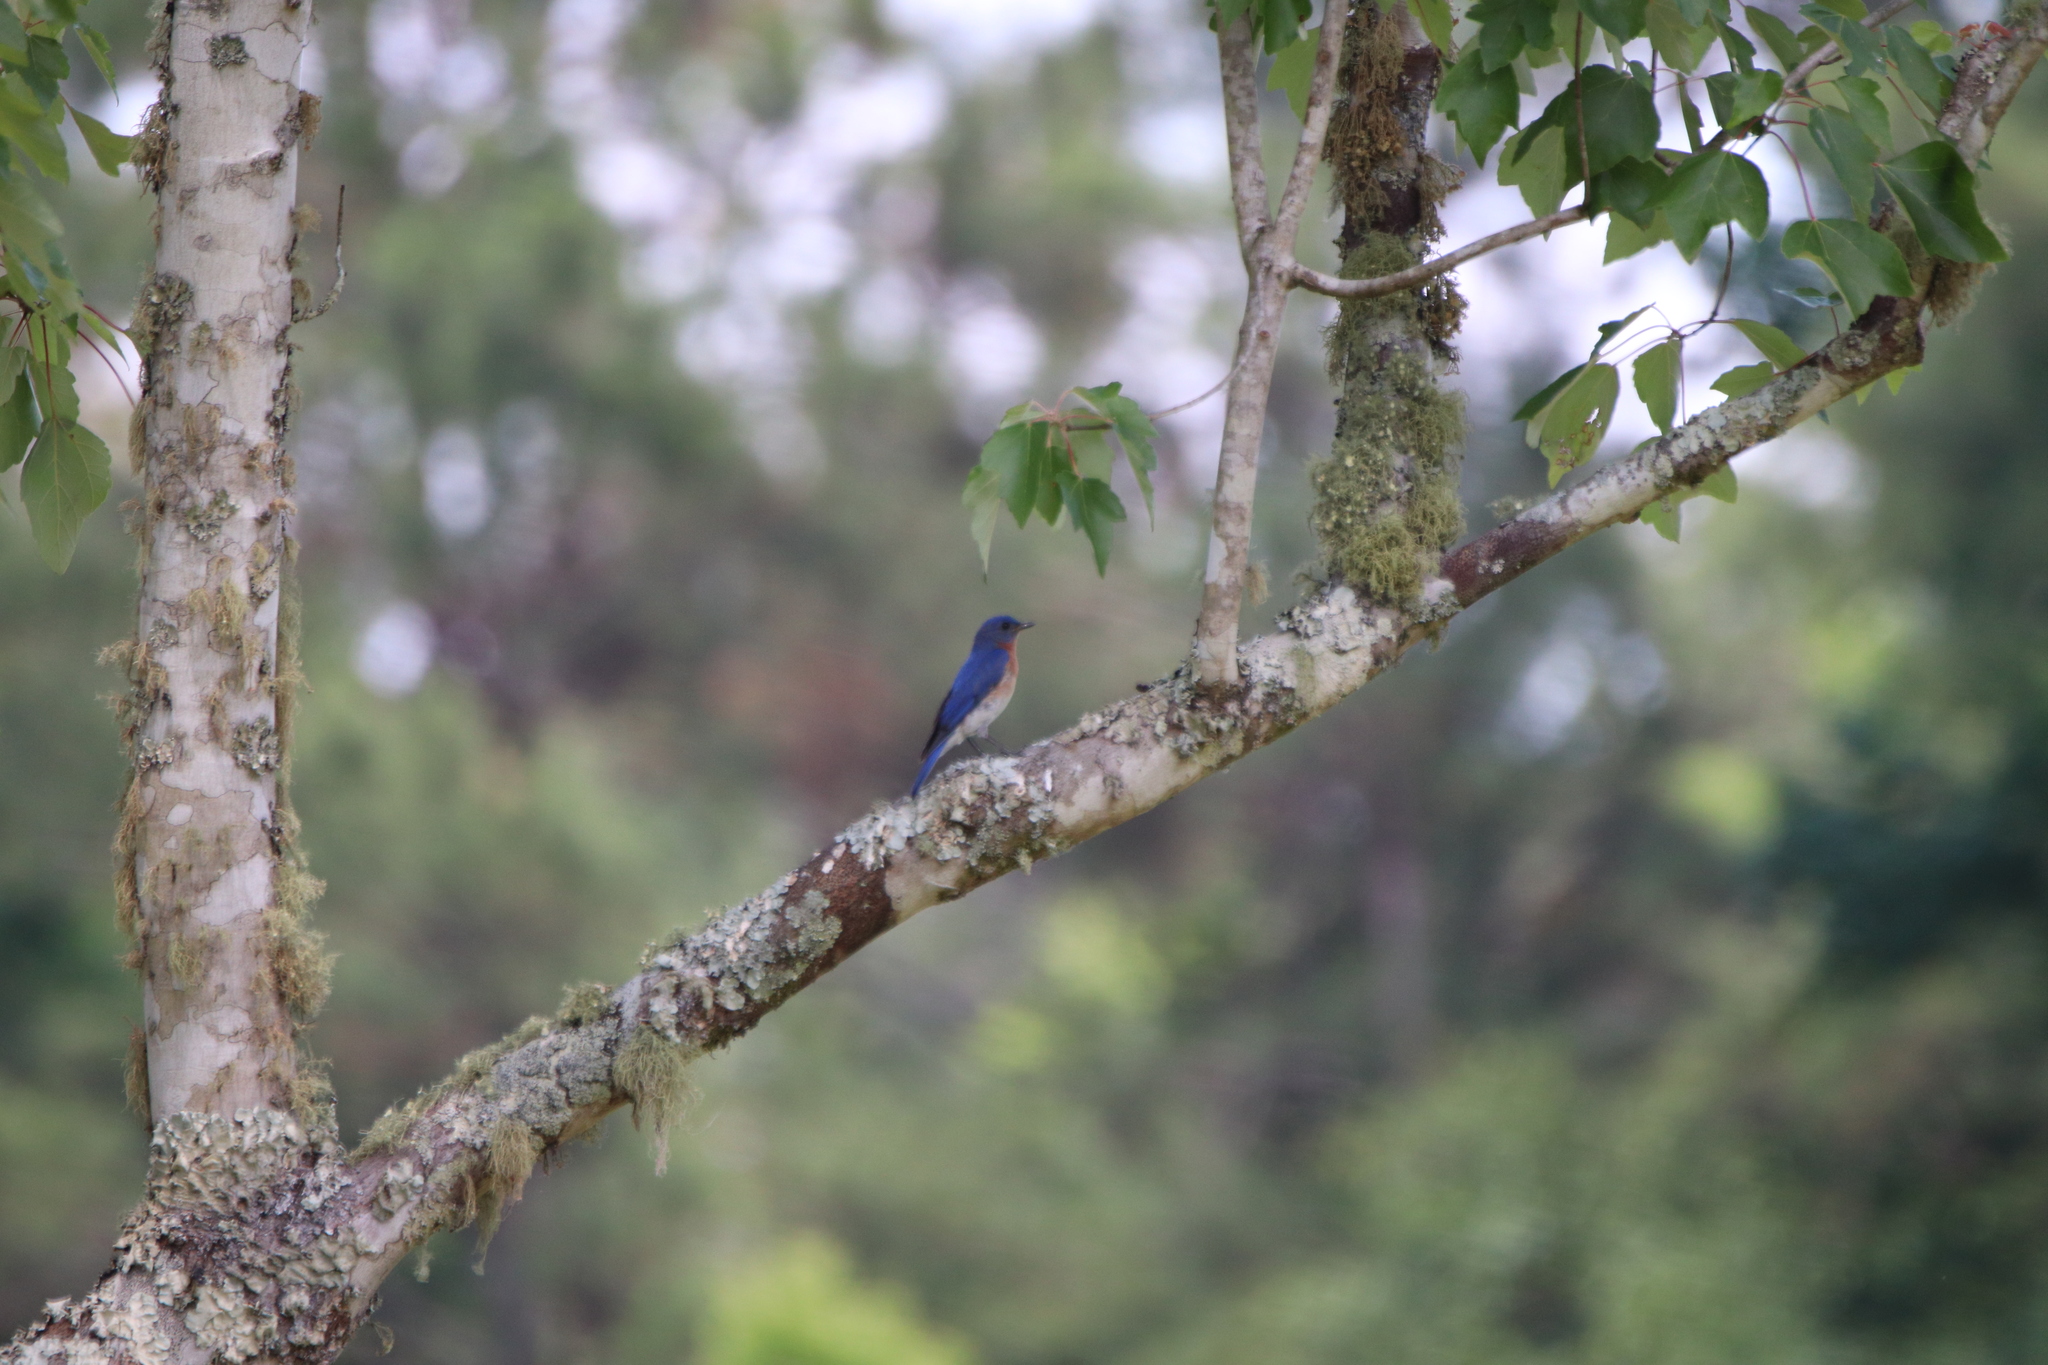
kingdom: Animalia
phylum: Chordata
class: Aves
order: Passeriformes
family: Turdidae
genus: Sialia
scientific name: Sialia sialis
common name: Eastern bluebird
